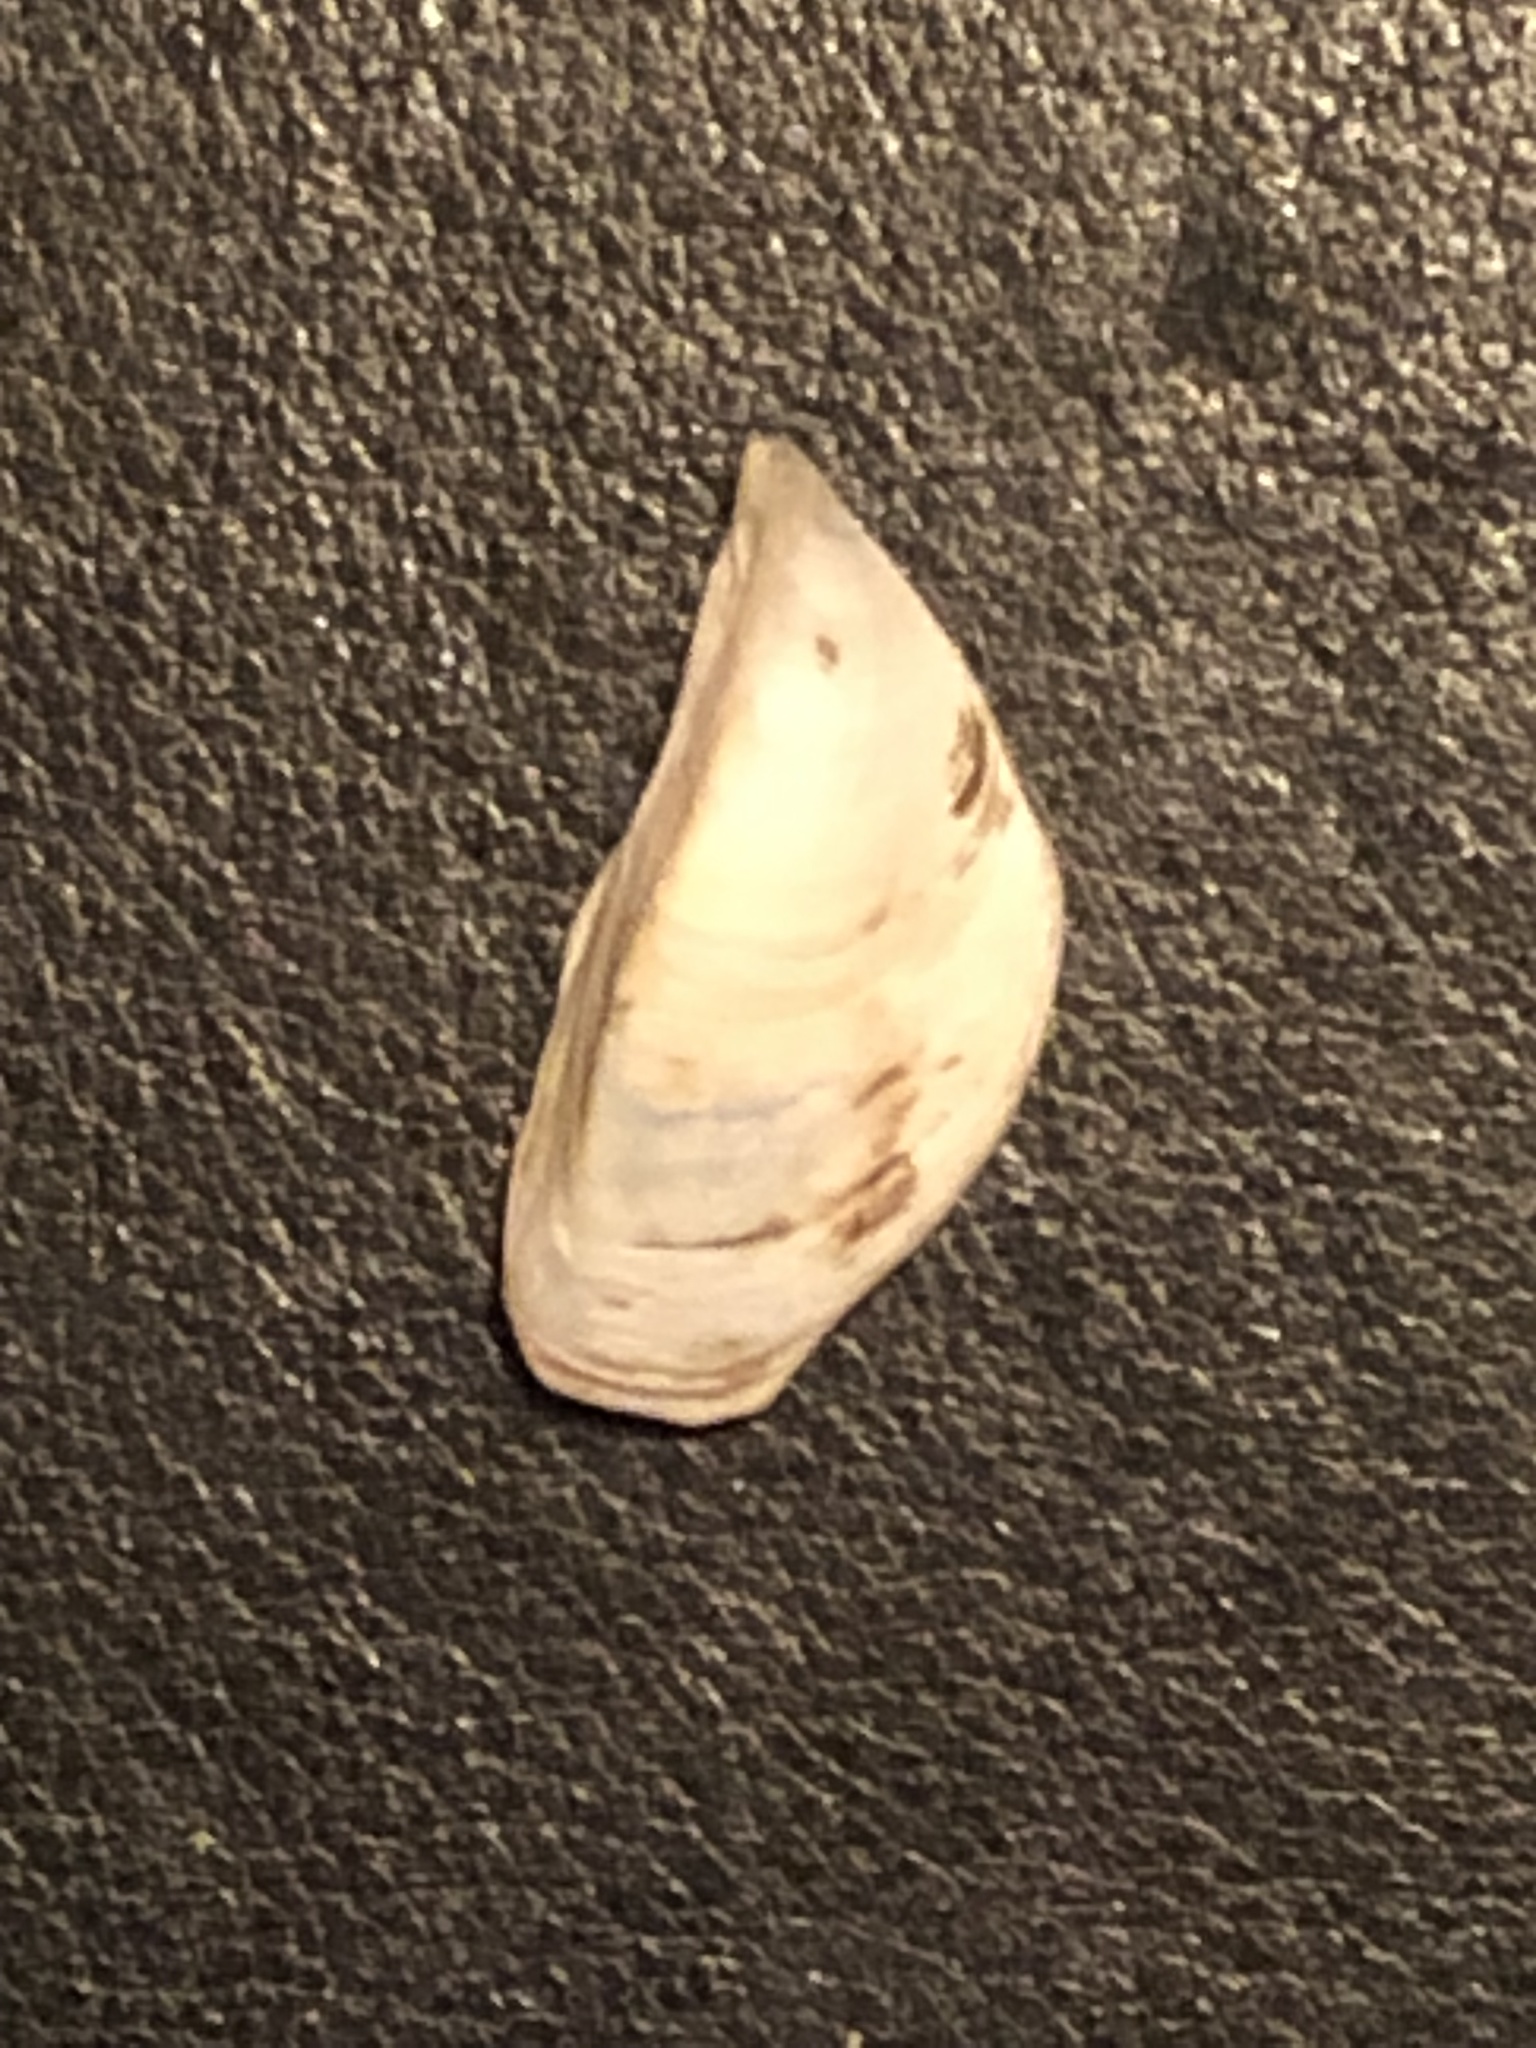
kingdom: Animalia
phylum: Mollusca
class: Bivalvia
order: Myida
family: Dreissenidae
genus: Dreissena
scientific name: Dreissena polymorpha
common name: Zebra mussel
